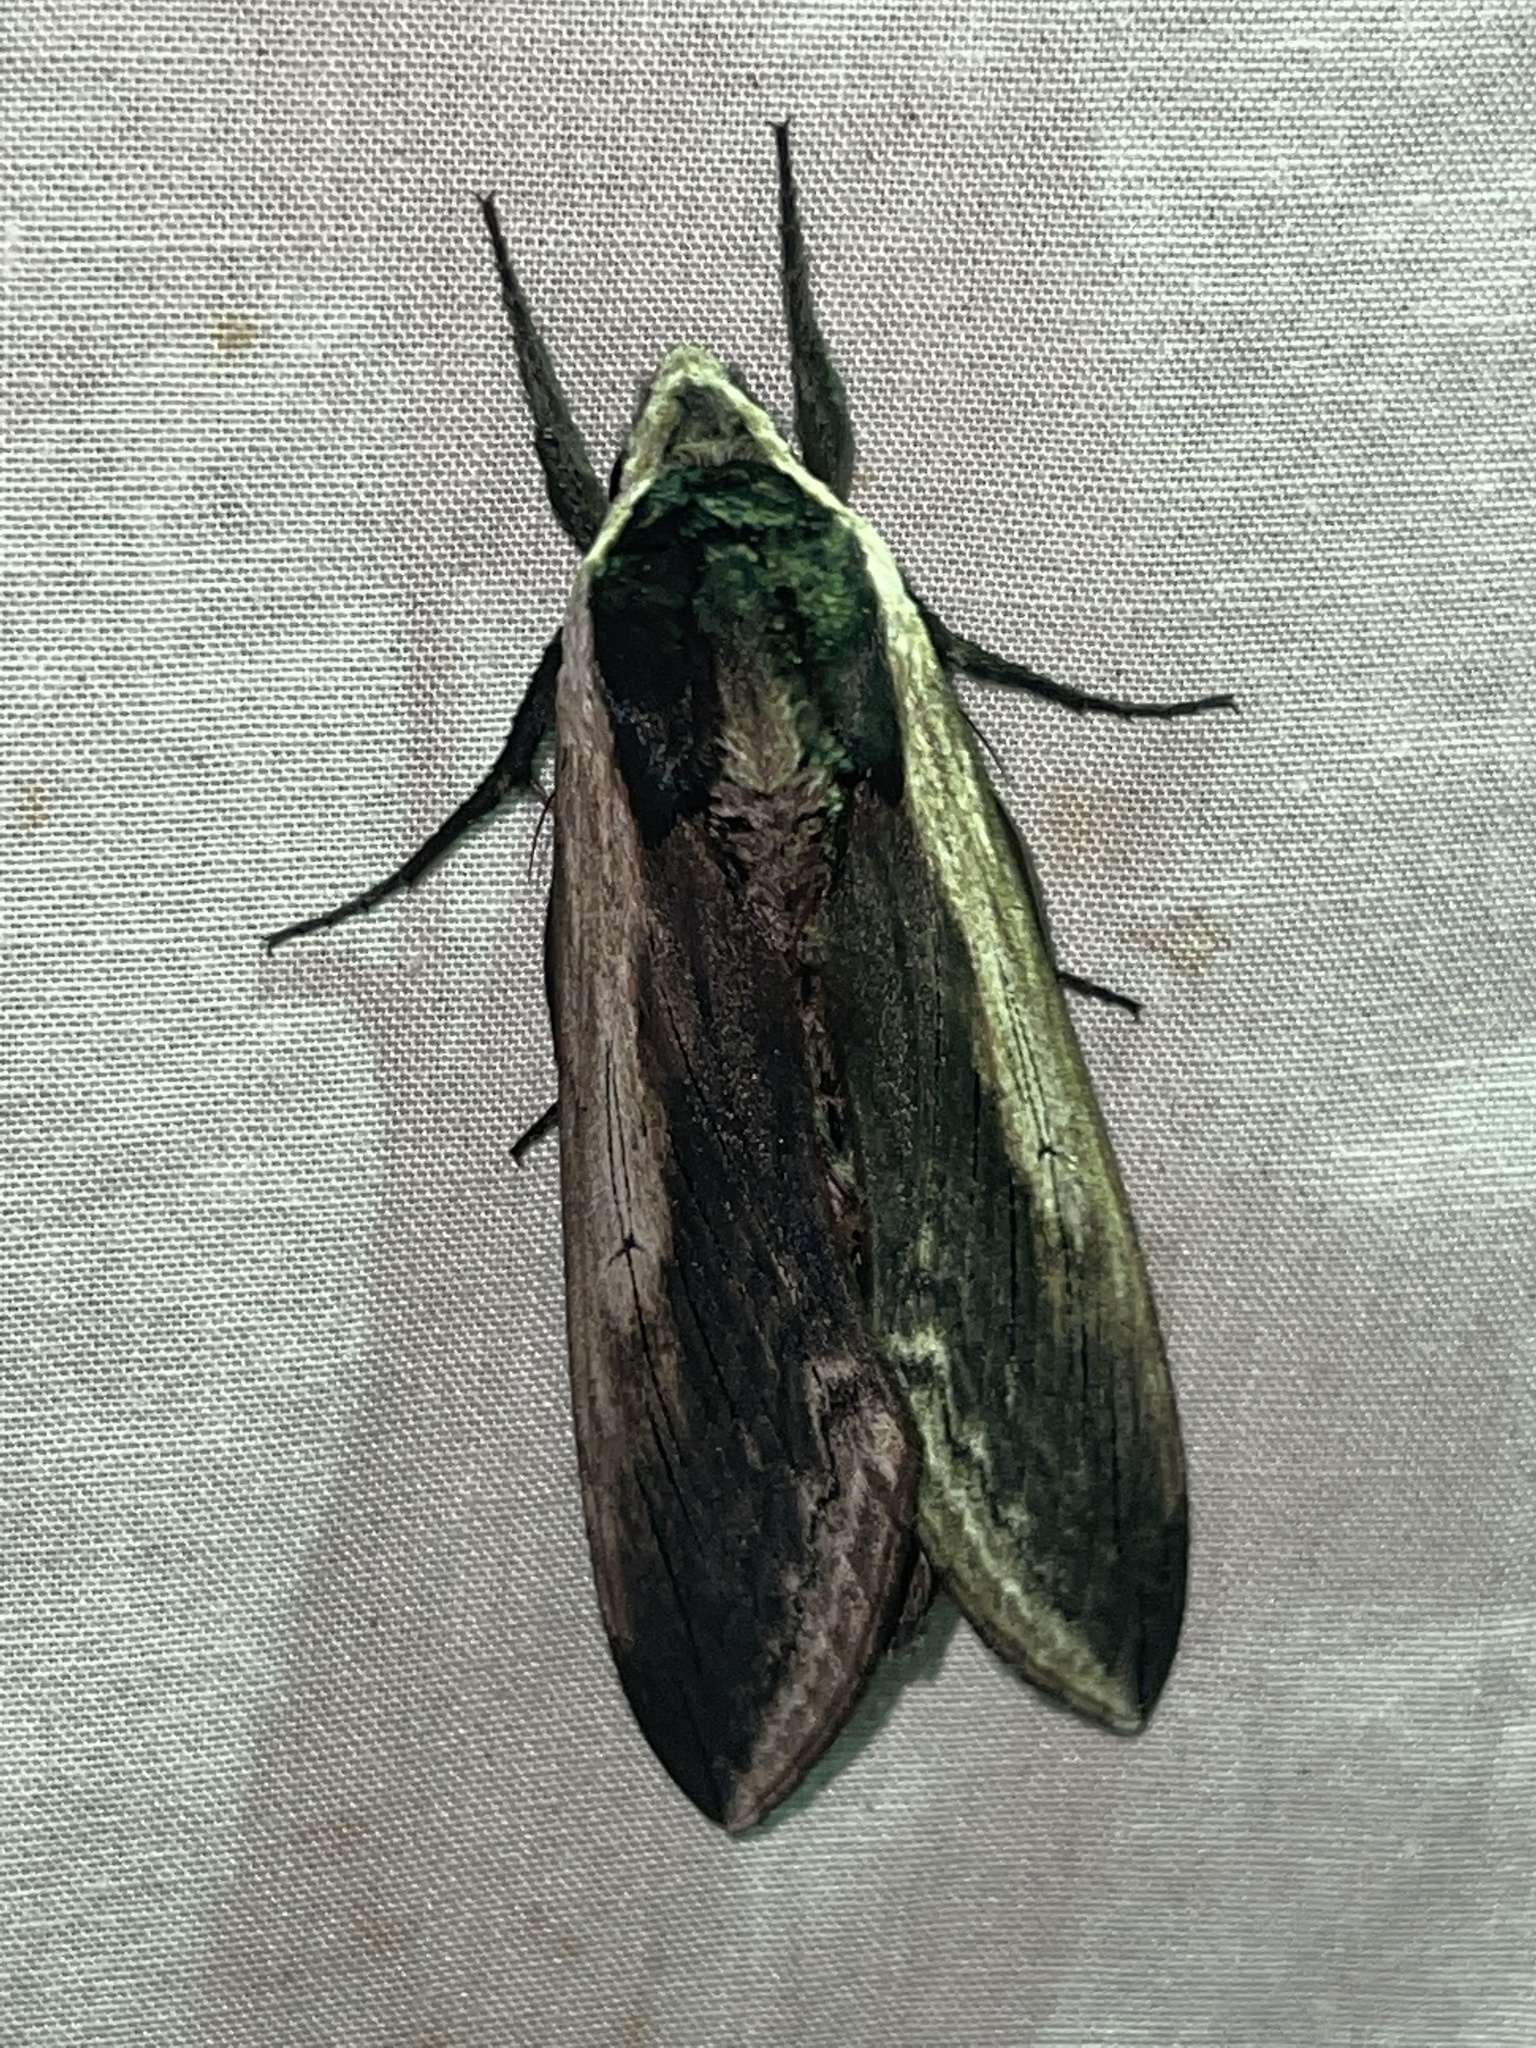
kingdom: Animalia
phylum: Arthropoda
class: Insecta
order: Lepidoptera
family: Sphingidae
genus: Sphinx
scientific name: Sphinx drupiferarum
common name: Wild cherry sphinx
